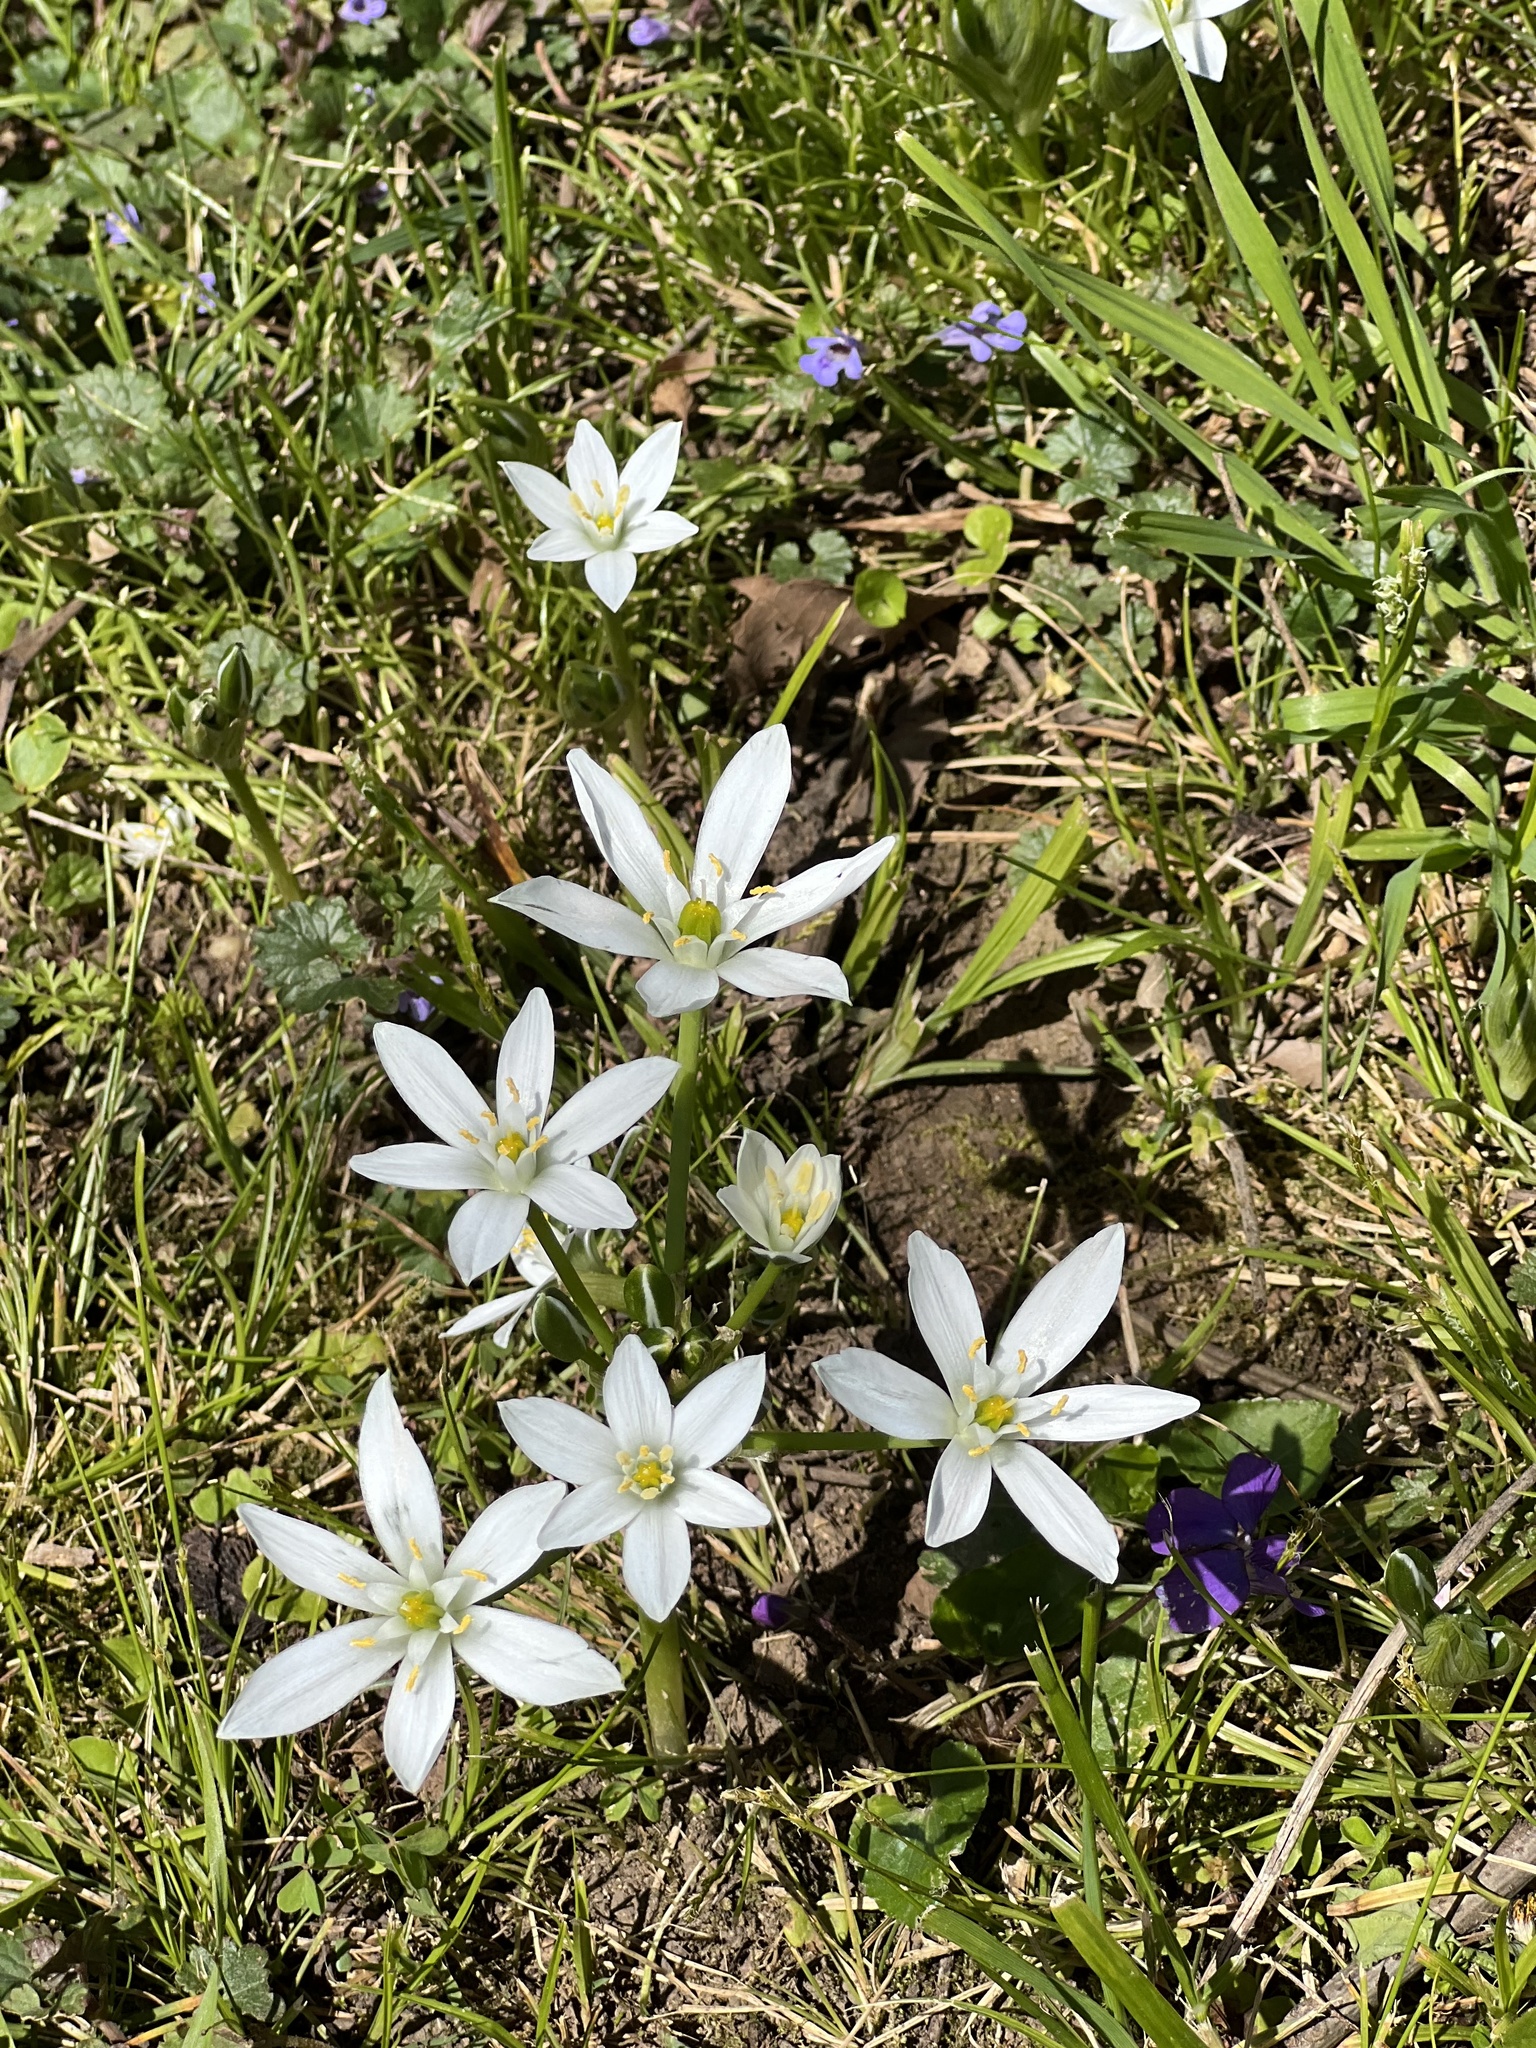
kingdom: Plantae
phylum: Tracheophyta
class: Liliopsida
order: Asparagales
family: Asparagaceae
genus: Ornithogalum
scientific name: Ornithogalum umbellatum
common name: Garden star-of-bethlehem
